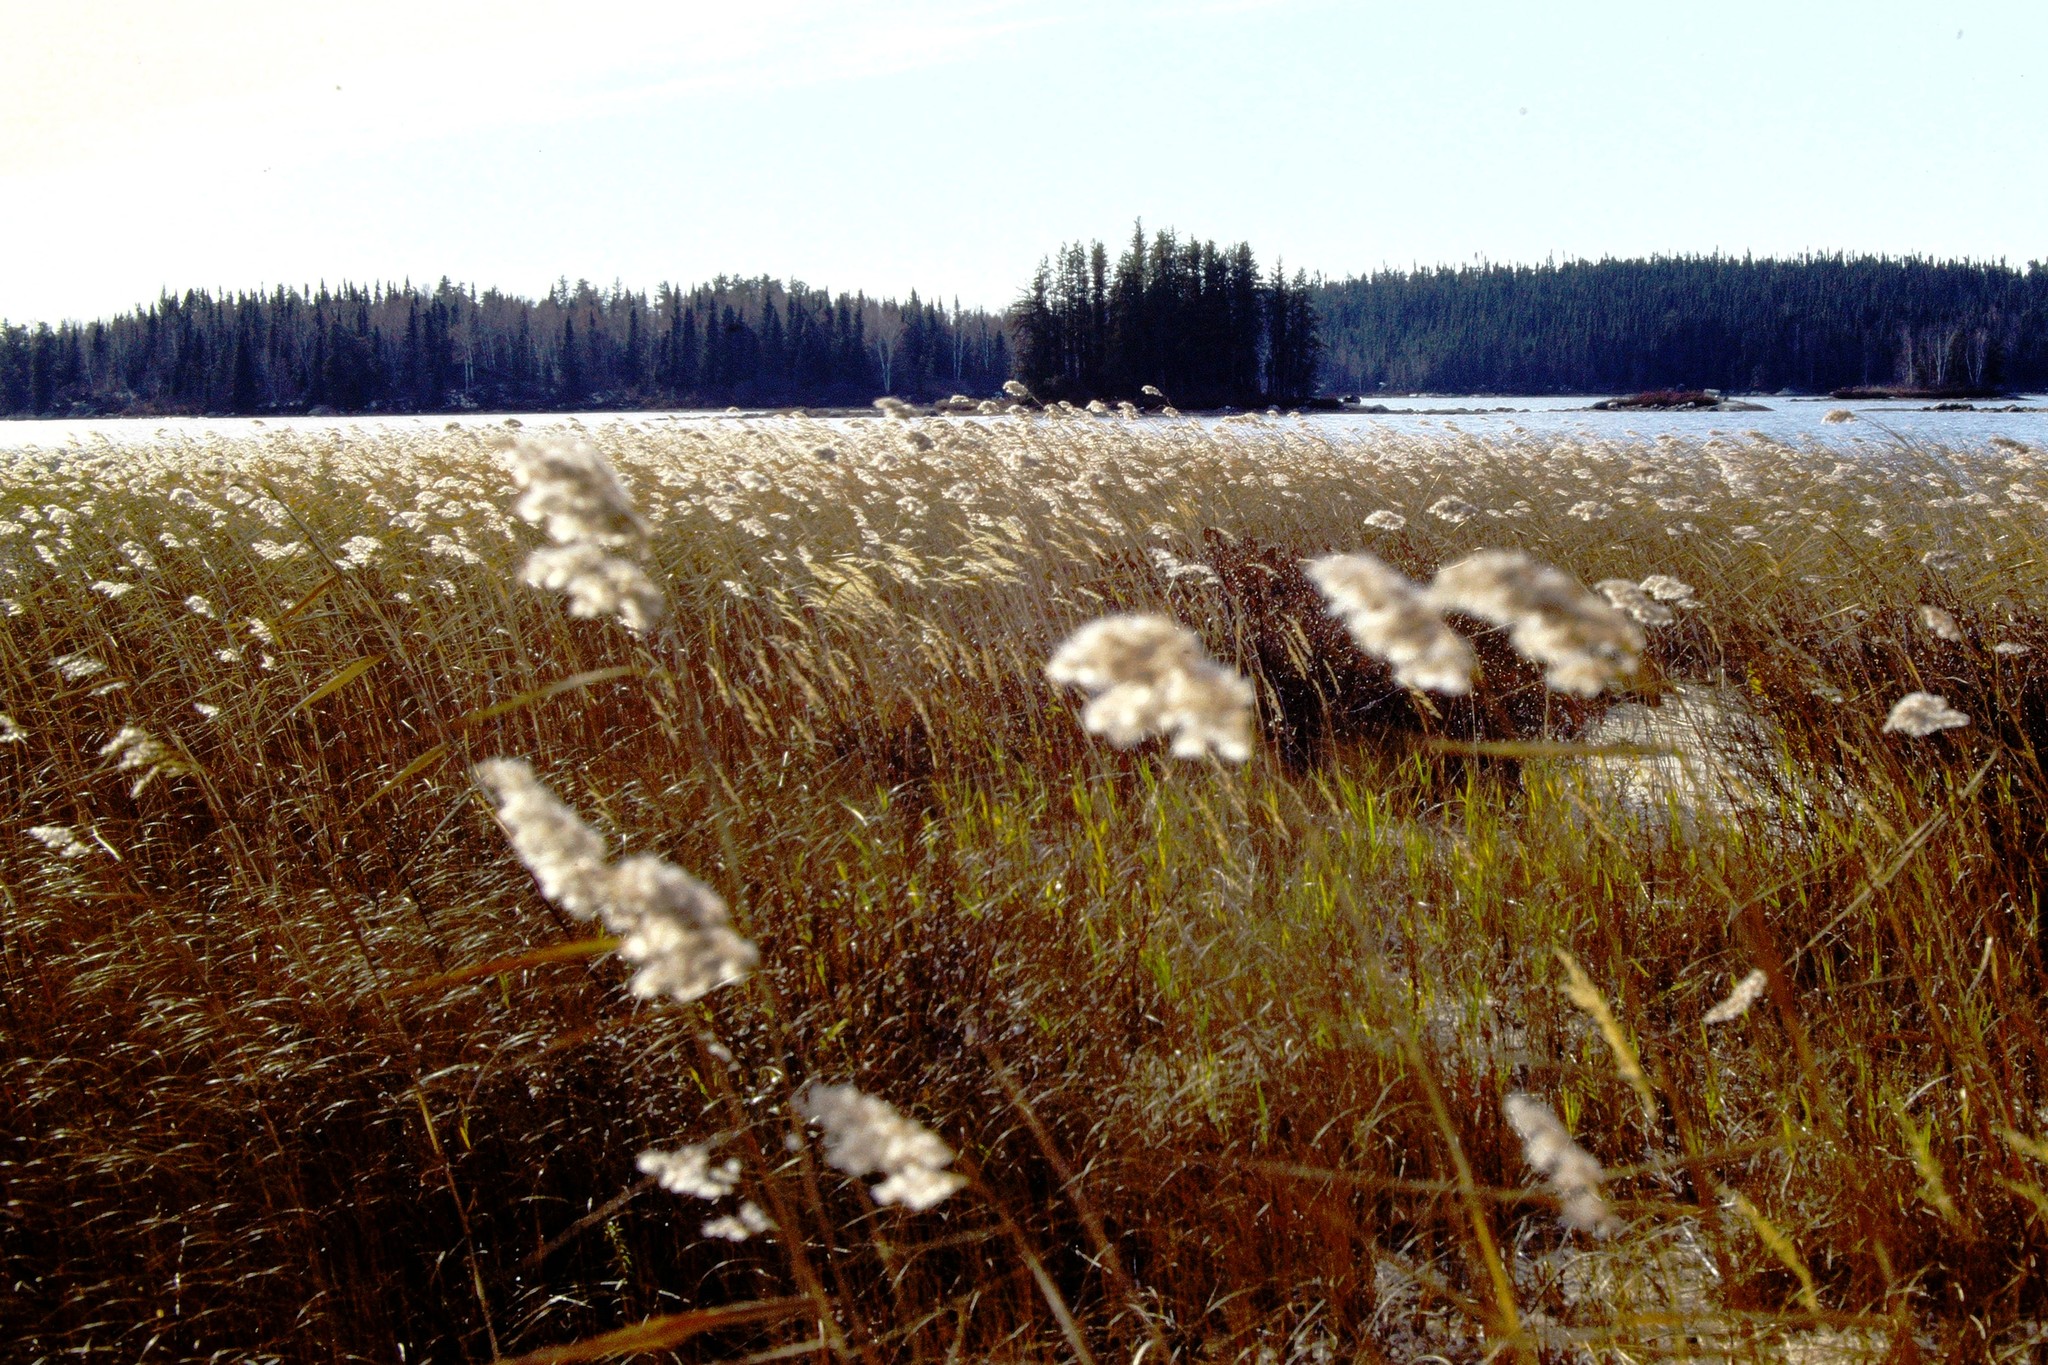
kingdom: Plantae
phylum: Tracheophyta
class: Liliopsida
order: Poales
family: Poaceae
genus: Phragmites
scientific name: Phragmites australis
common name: Common reed
